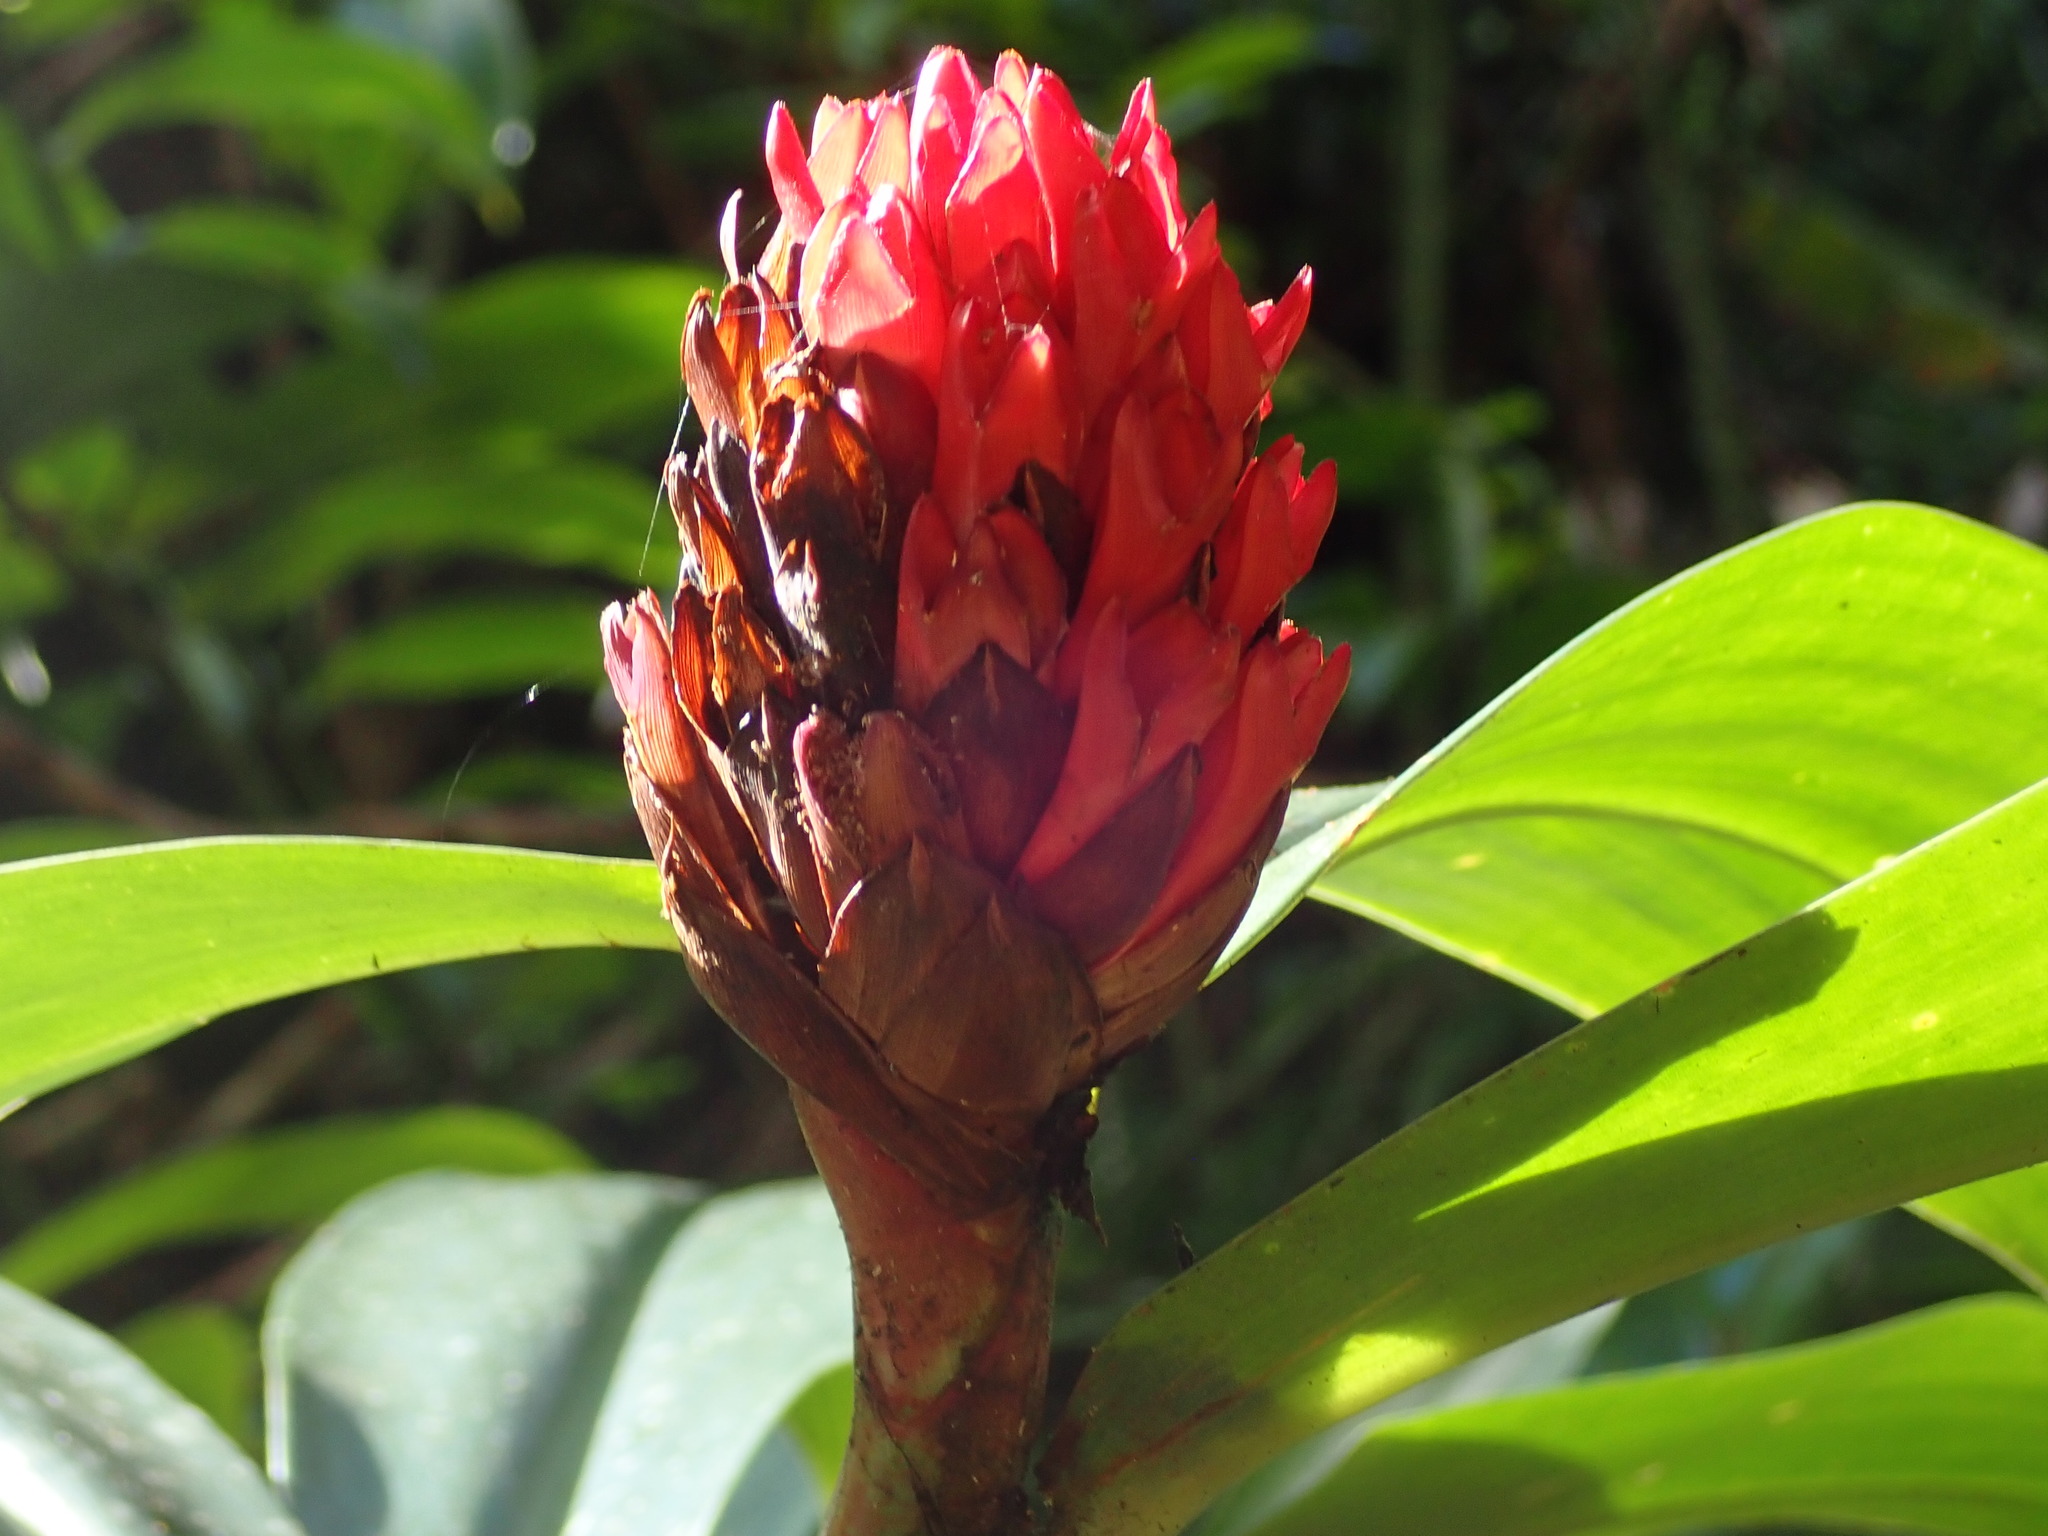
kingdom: Plantae
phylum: Tracheophyta
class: Liliopsida
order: Zingiberales
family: Costaceae
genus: Hellenia
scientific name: Hellenia speciosa
